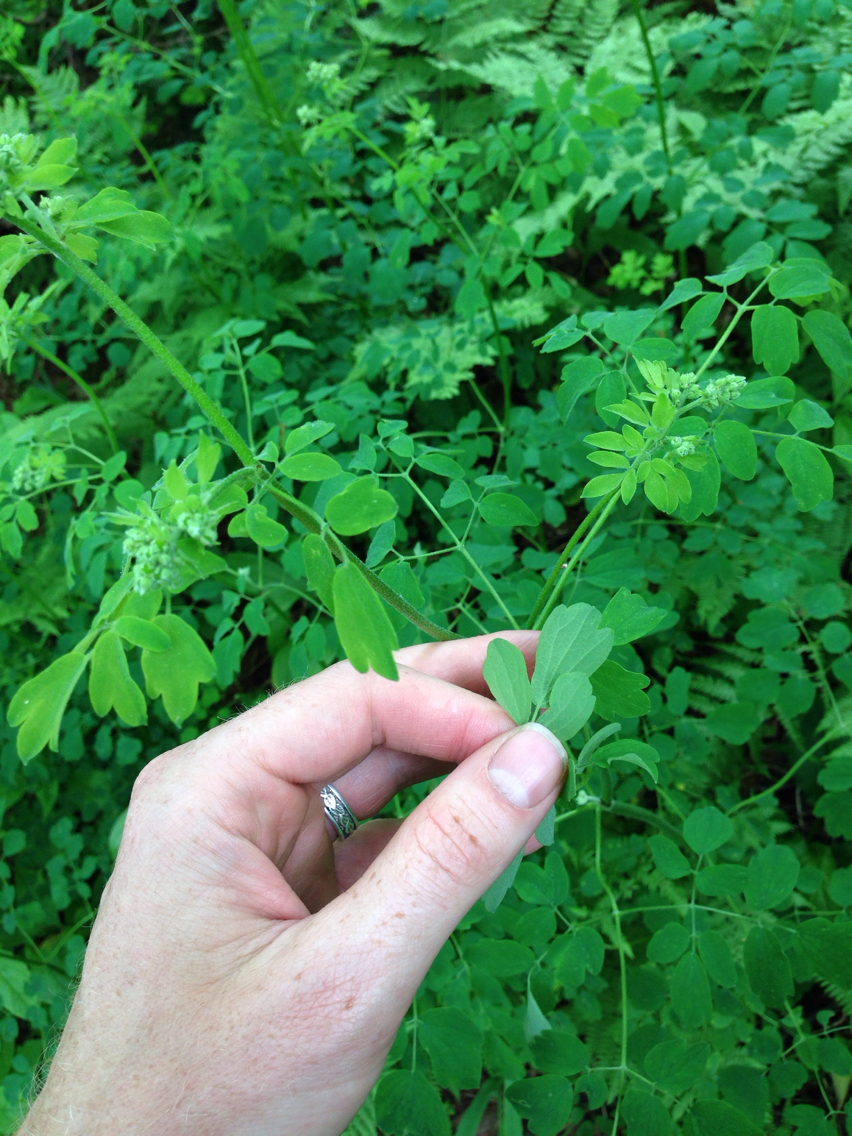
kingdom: Plantae
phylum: Tracheophyta
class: Magnoliopsida
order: Ranunculales
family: Ranunculaceae
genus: Thalictrum
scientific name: Thalictrum pubescens
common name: King-of-the-meadow
